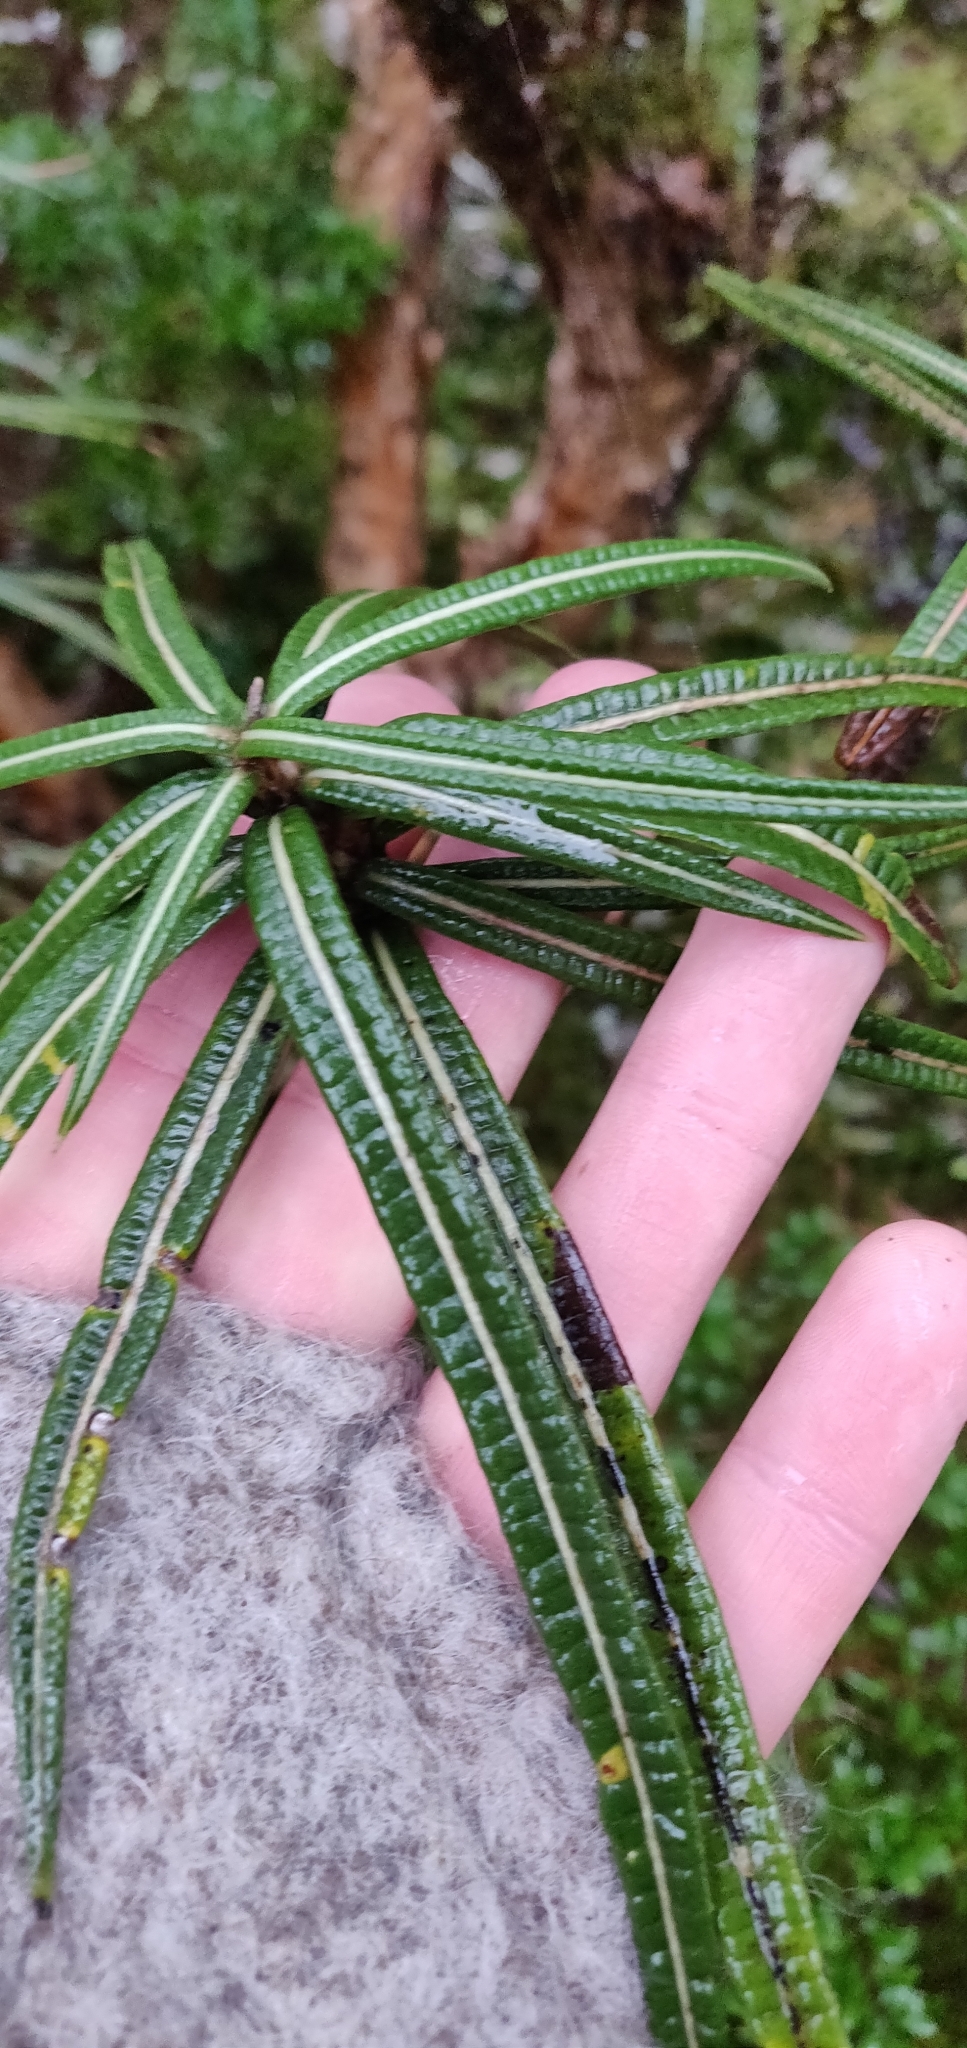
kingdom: Plantae
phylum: Tracheophyta
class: Magnoliopsida
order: Asterales
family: Asteraceae
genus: Olearia
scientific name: Olearia lacunosa
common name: Lancewood tree daisy
